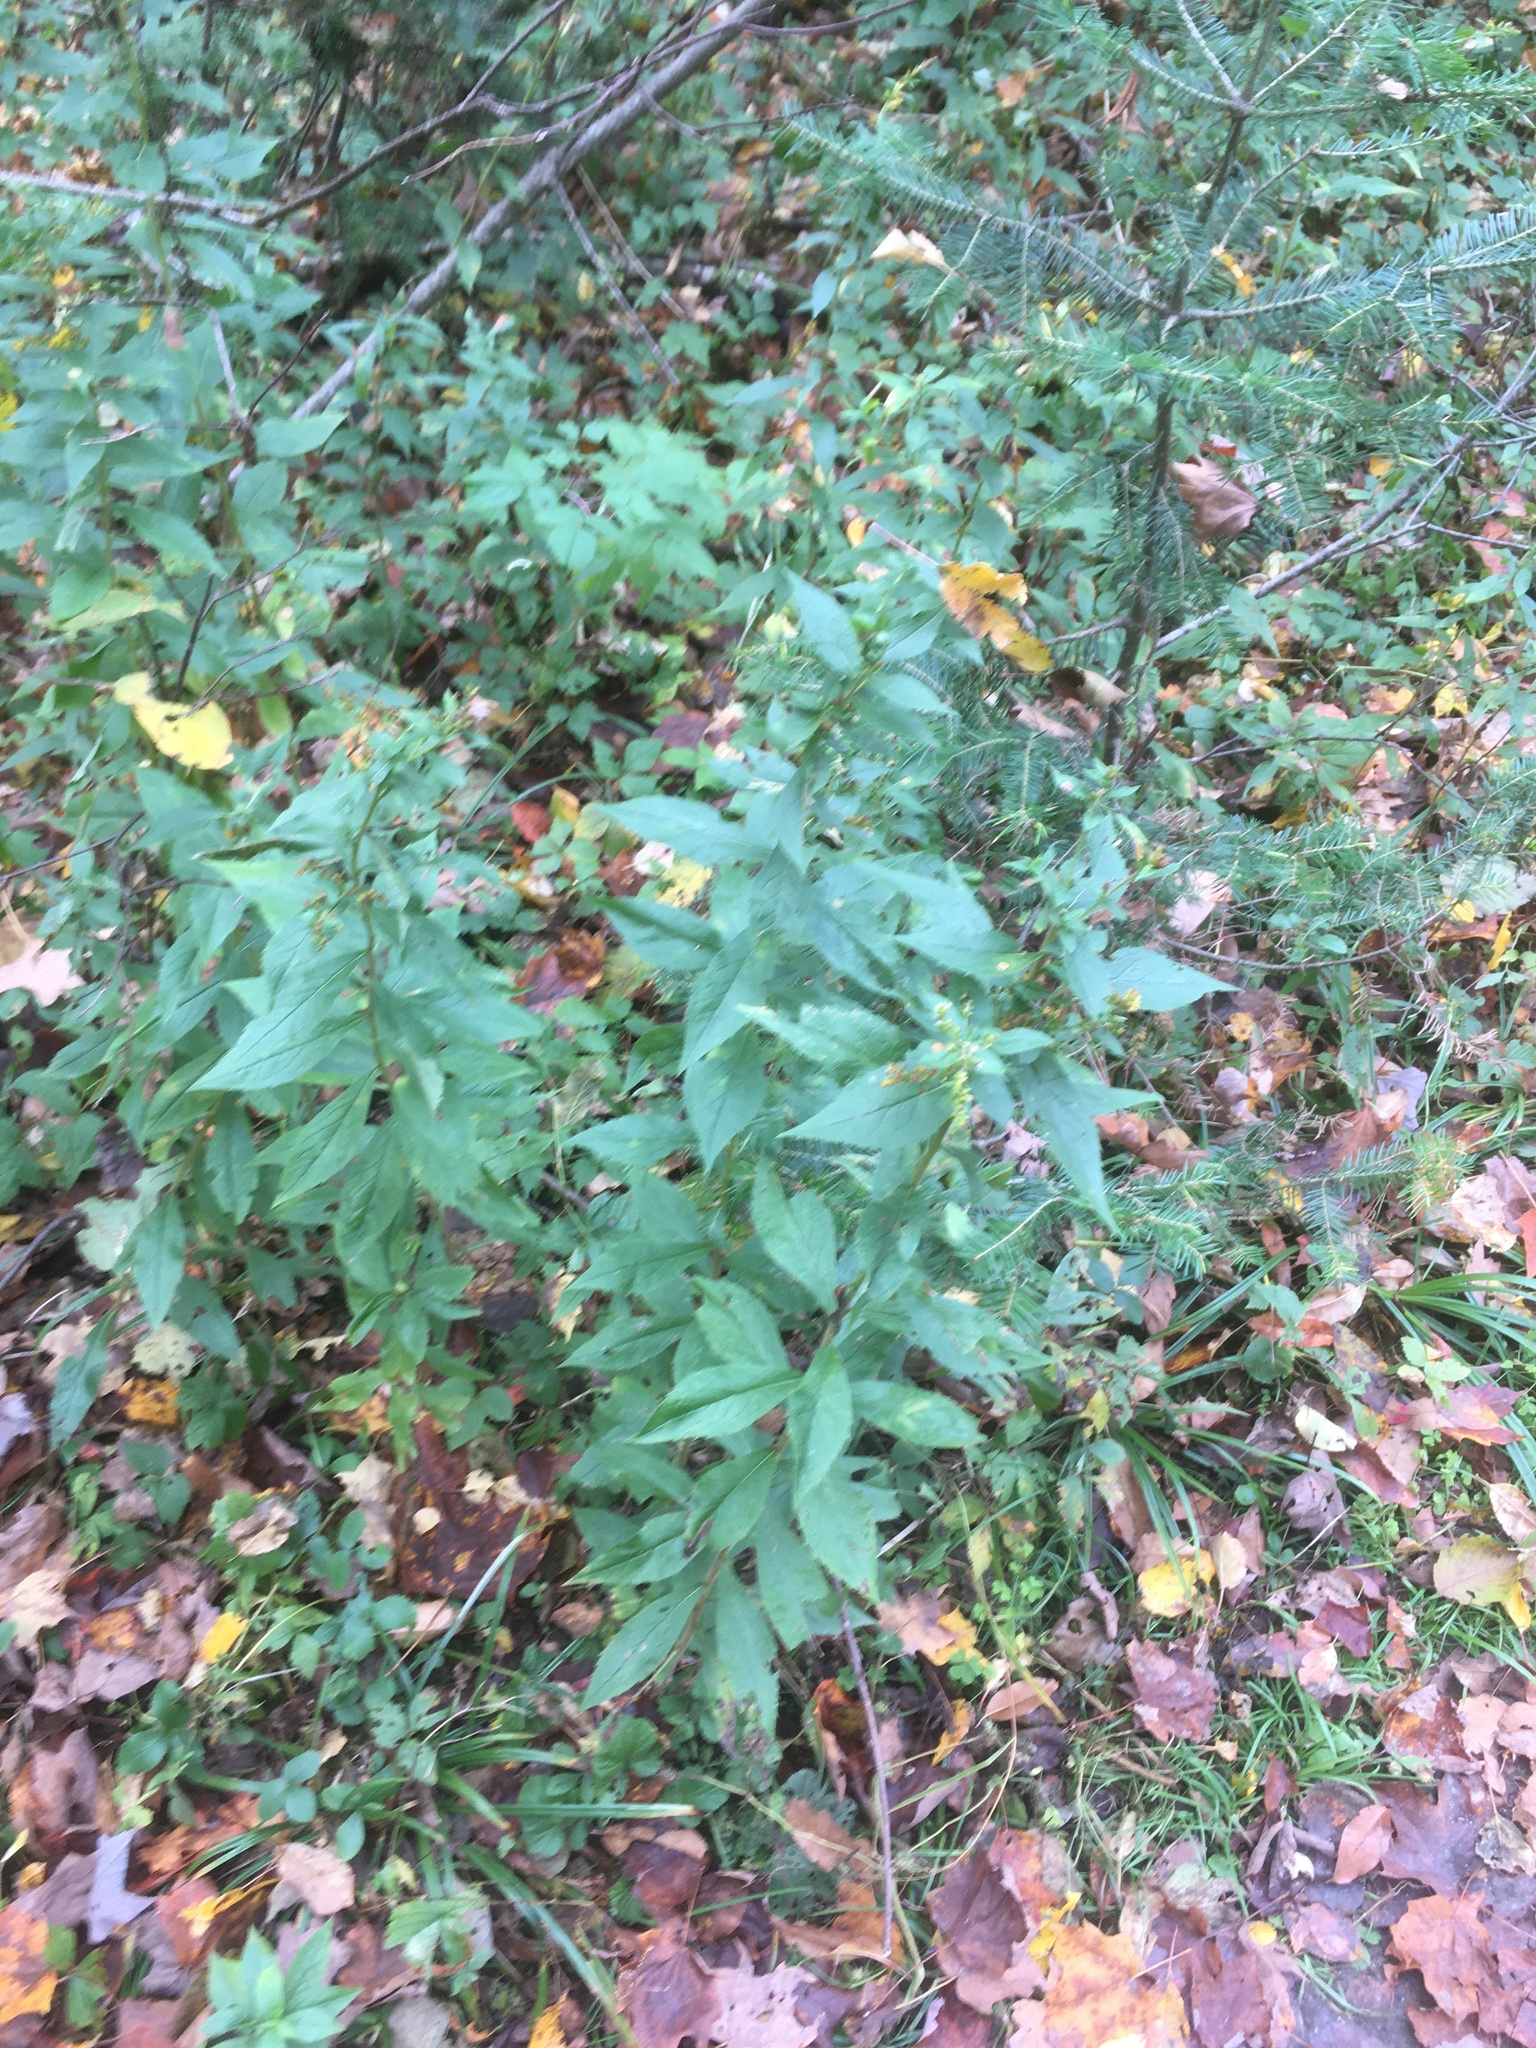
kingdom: Plantae
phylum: Tracheophyta
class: Magnoliopsida
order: Asterales
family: Asteraceae
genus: Solidago
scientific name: Solidago rugosa
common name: Rough-stemmed goldenrod
